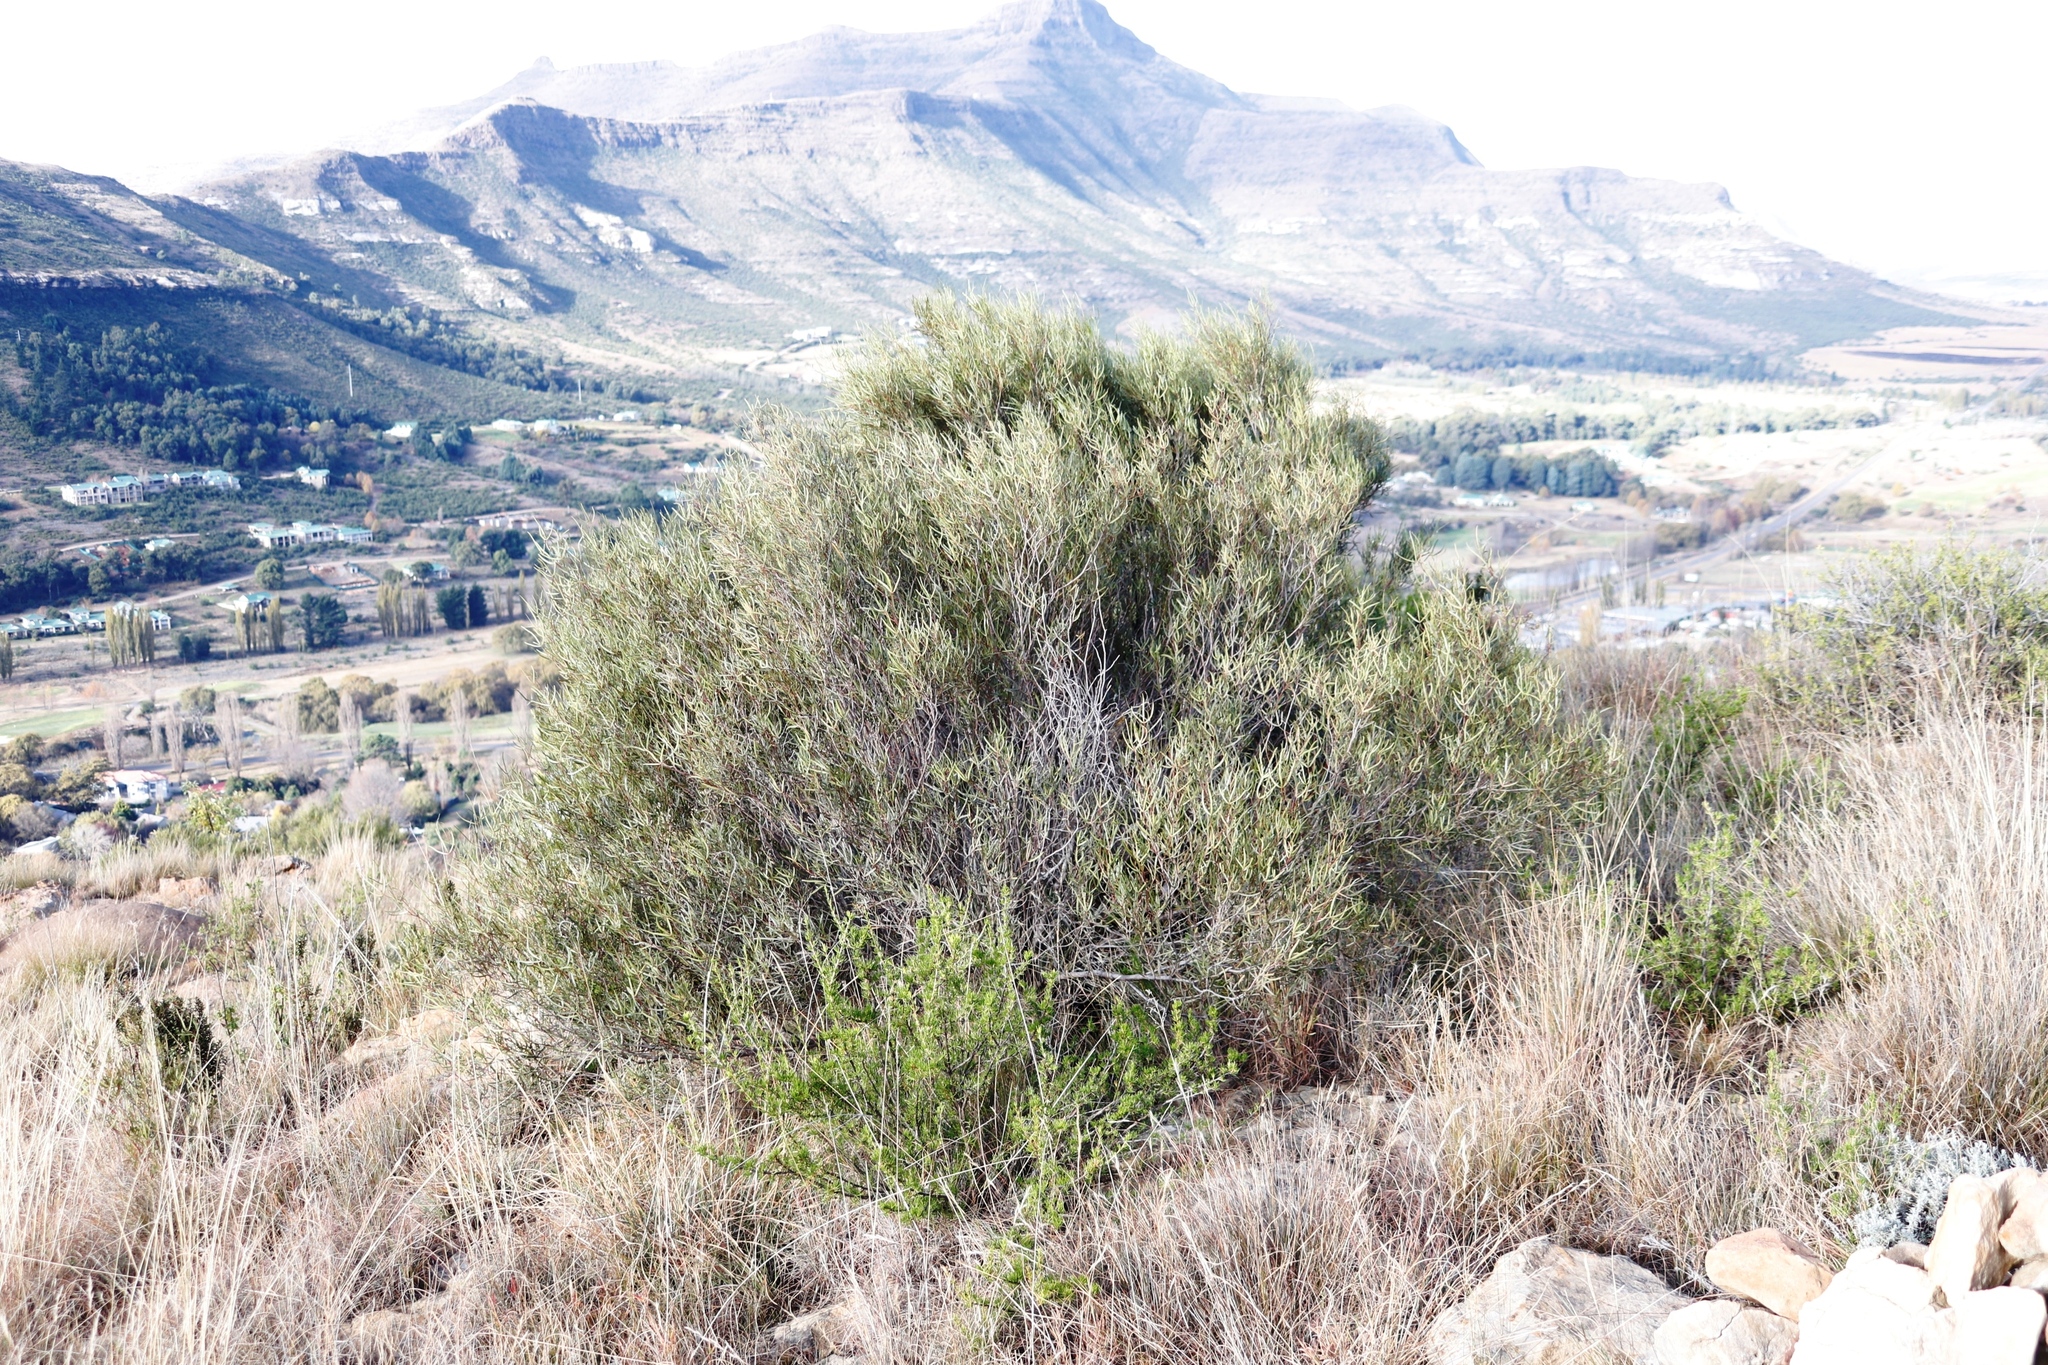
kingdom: Plantae
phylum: Tracheophyta
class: Magnoliopsida
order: Sapindales
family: Anacardiaceae
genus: Searsia
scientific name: Searsia erosa
